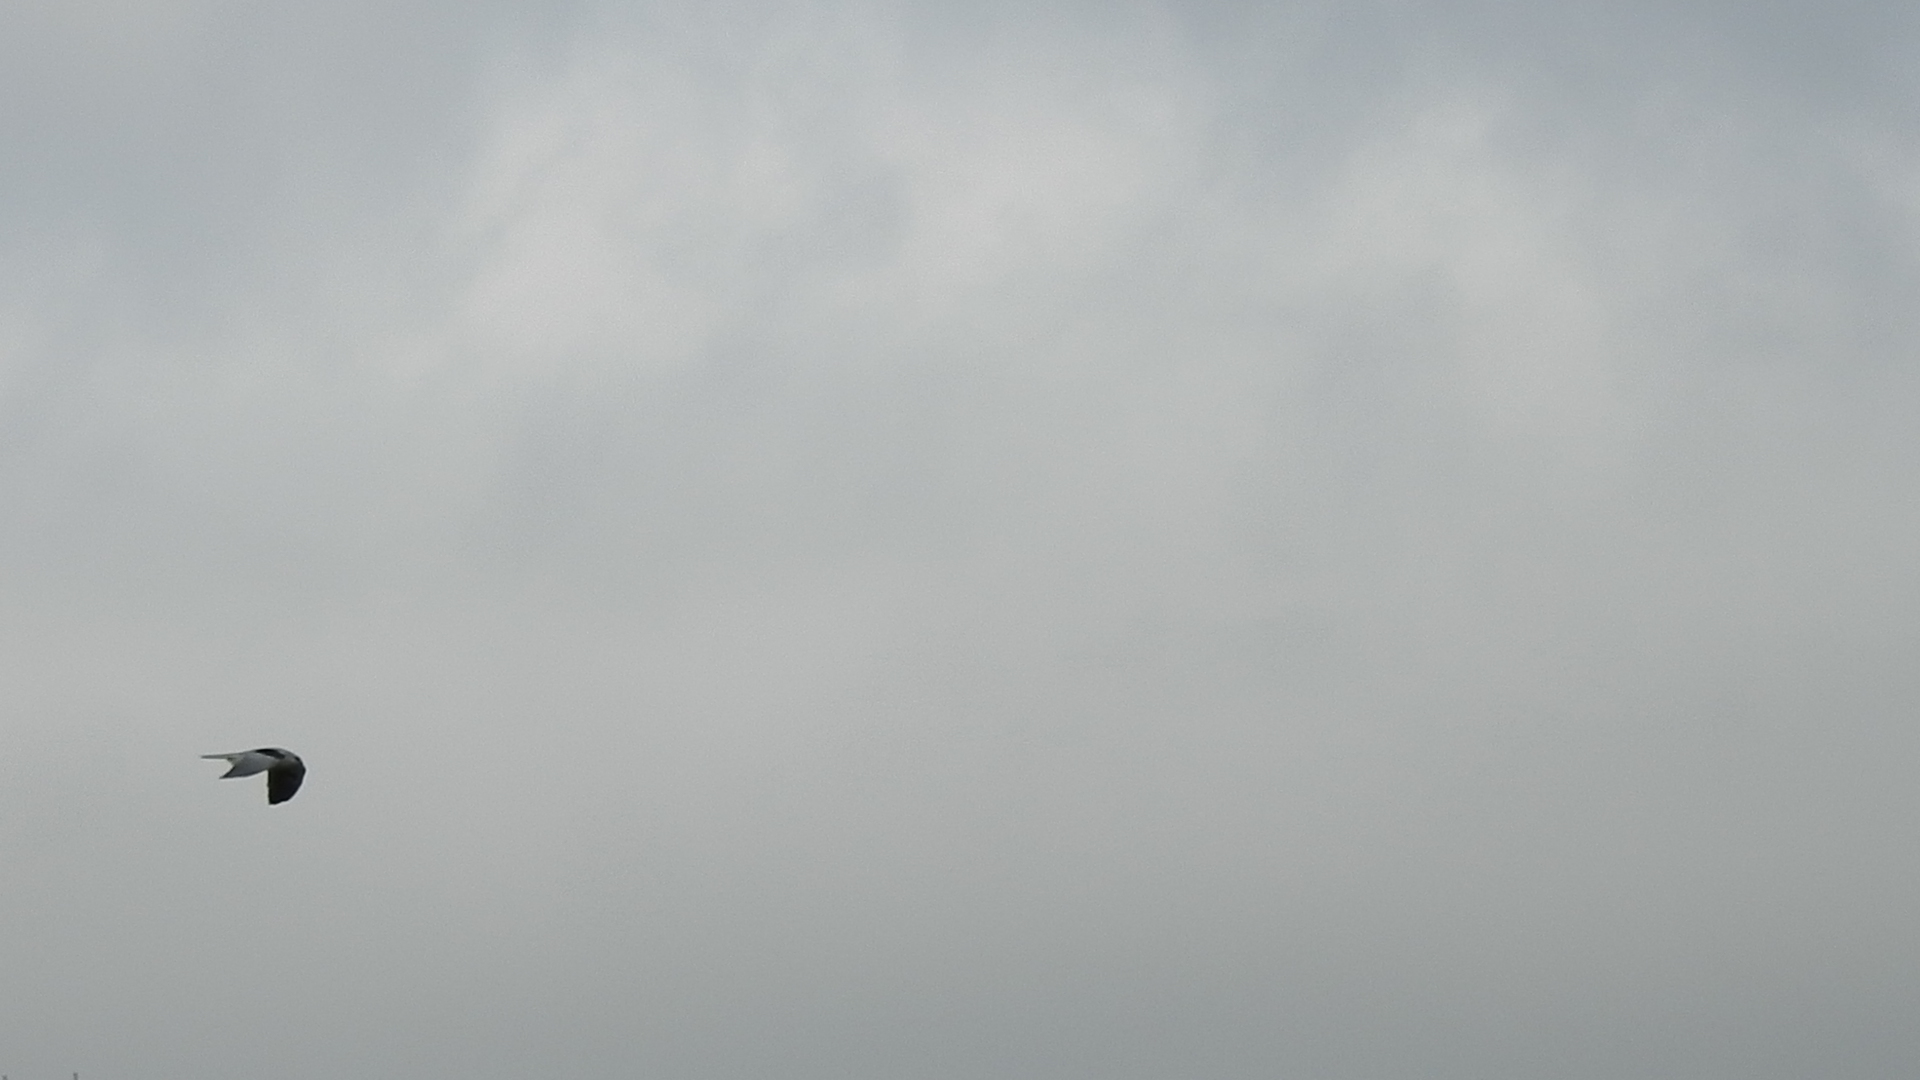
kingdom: Animalia
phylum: Chordata
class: Aves
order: Accipitriformes
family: Accipitridae
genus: Elanus
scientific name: Elanus leucurus
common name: White-tailed kite
